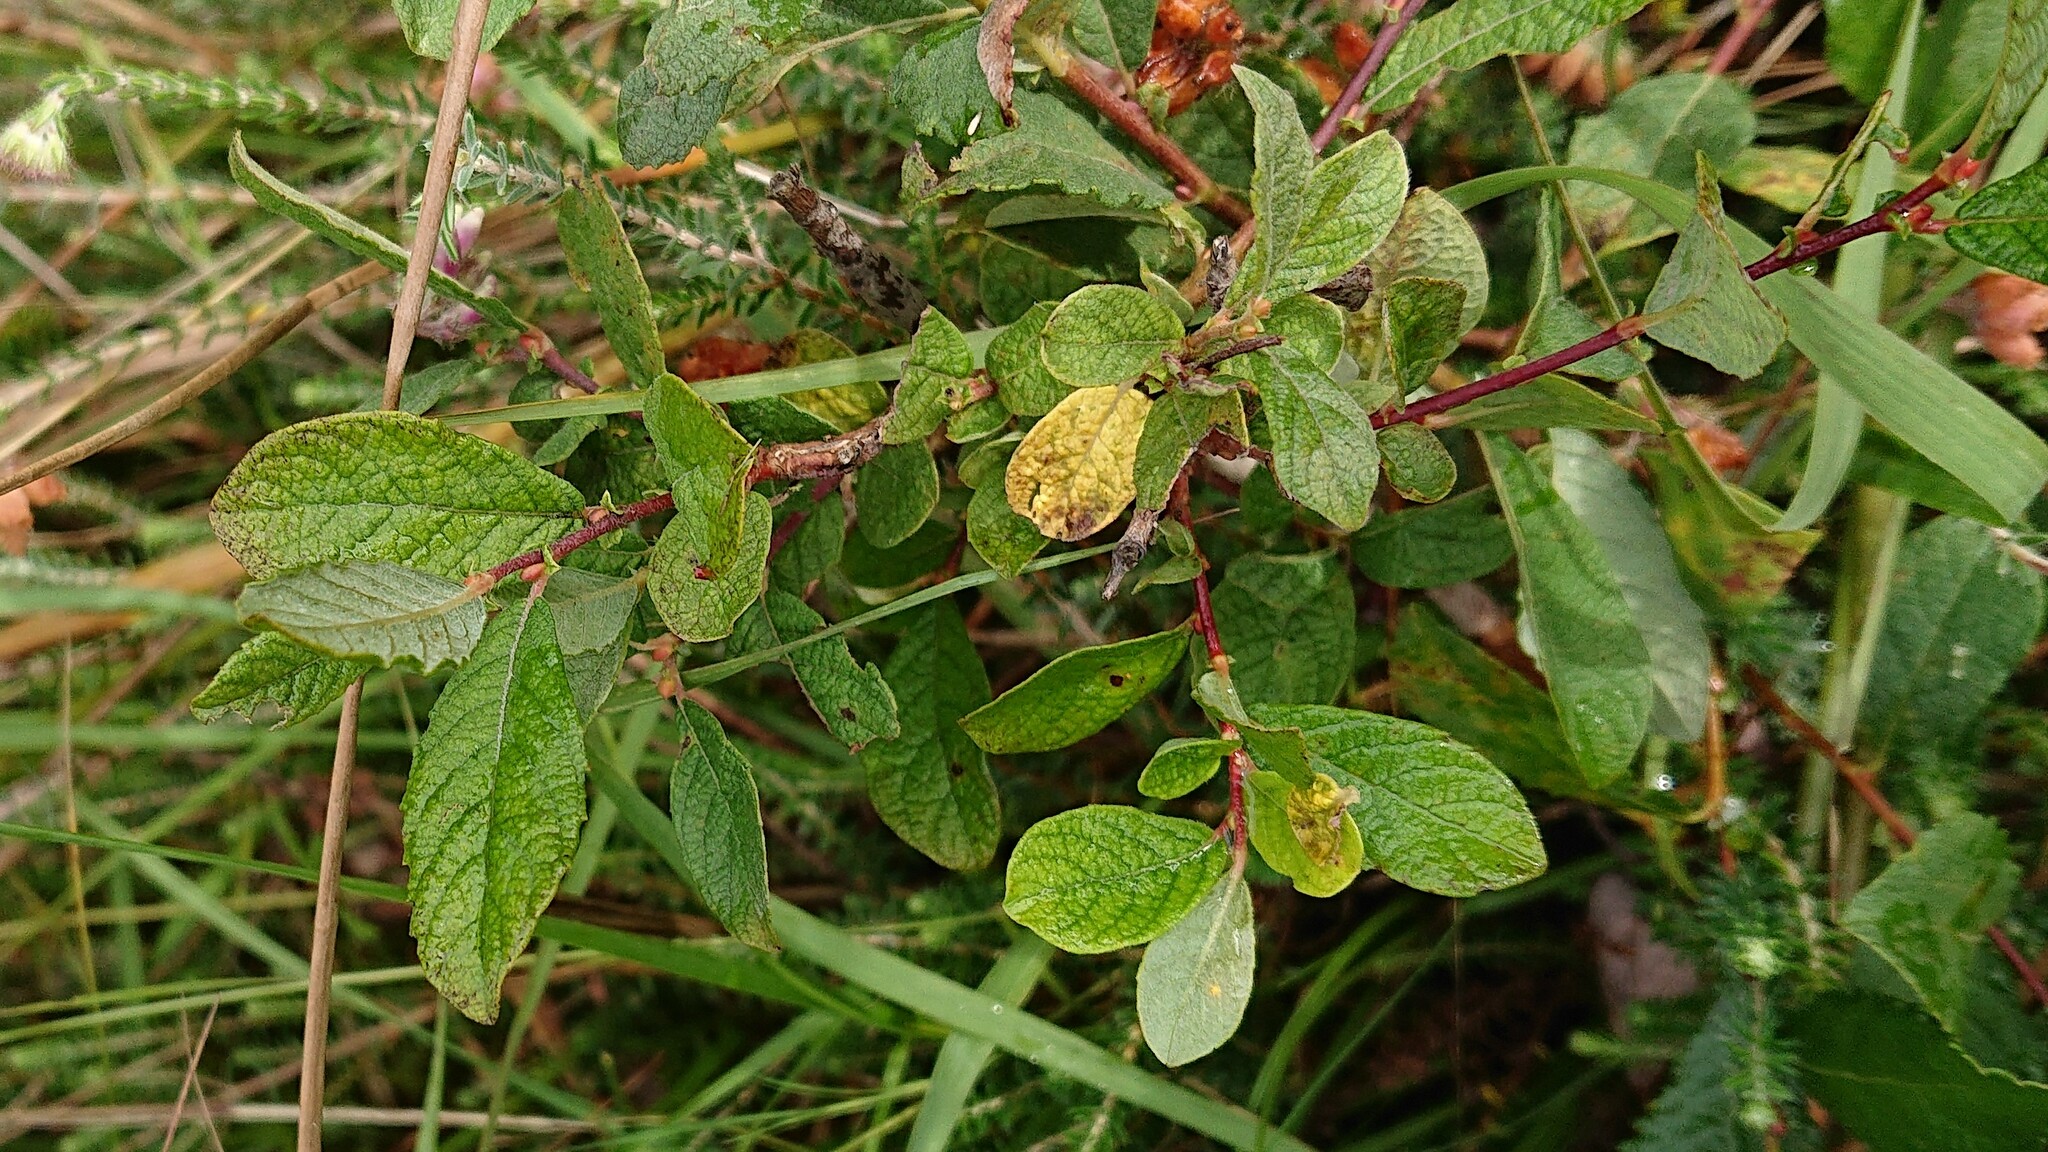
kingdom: Plantae
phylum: Tracheophyta
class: Magnoliopsida
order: Malpighiales
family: Salicaceae
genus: Salix
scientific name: Salix aurita
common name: Eared willow
